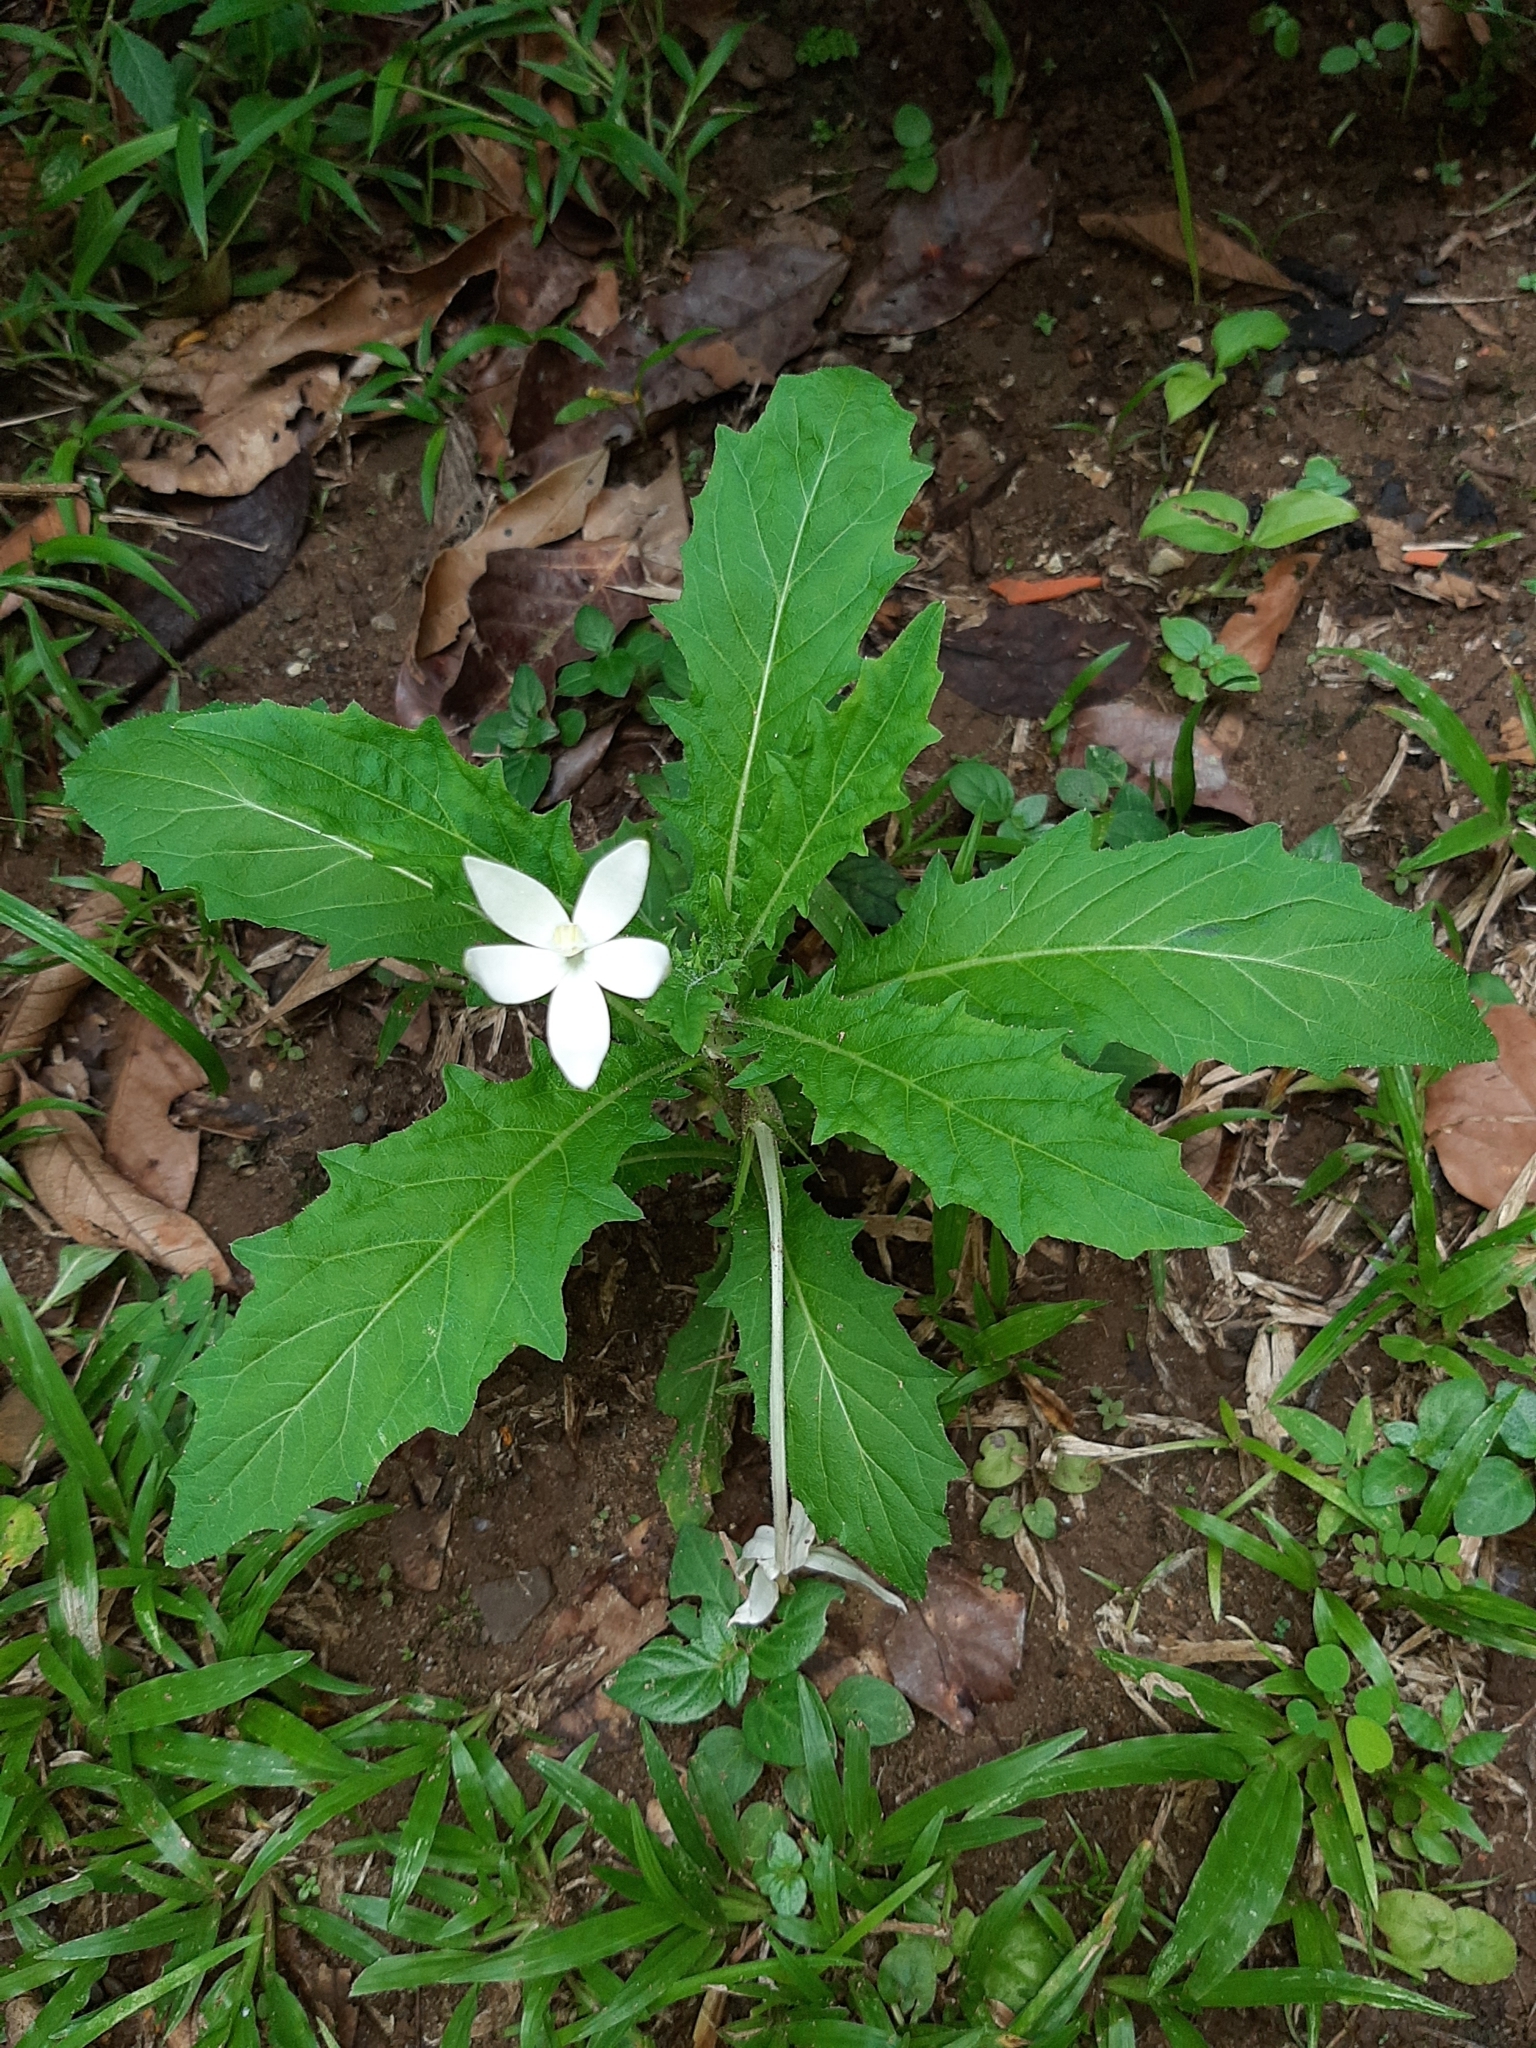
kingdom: Plantae
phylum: Tracheophyta
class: Magnoliopsida
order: Asterales
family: Campanulaceae
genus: Hippobroma
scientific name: Hippobroma longiflora
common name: Madamfate
